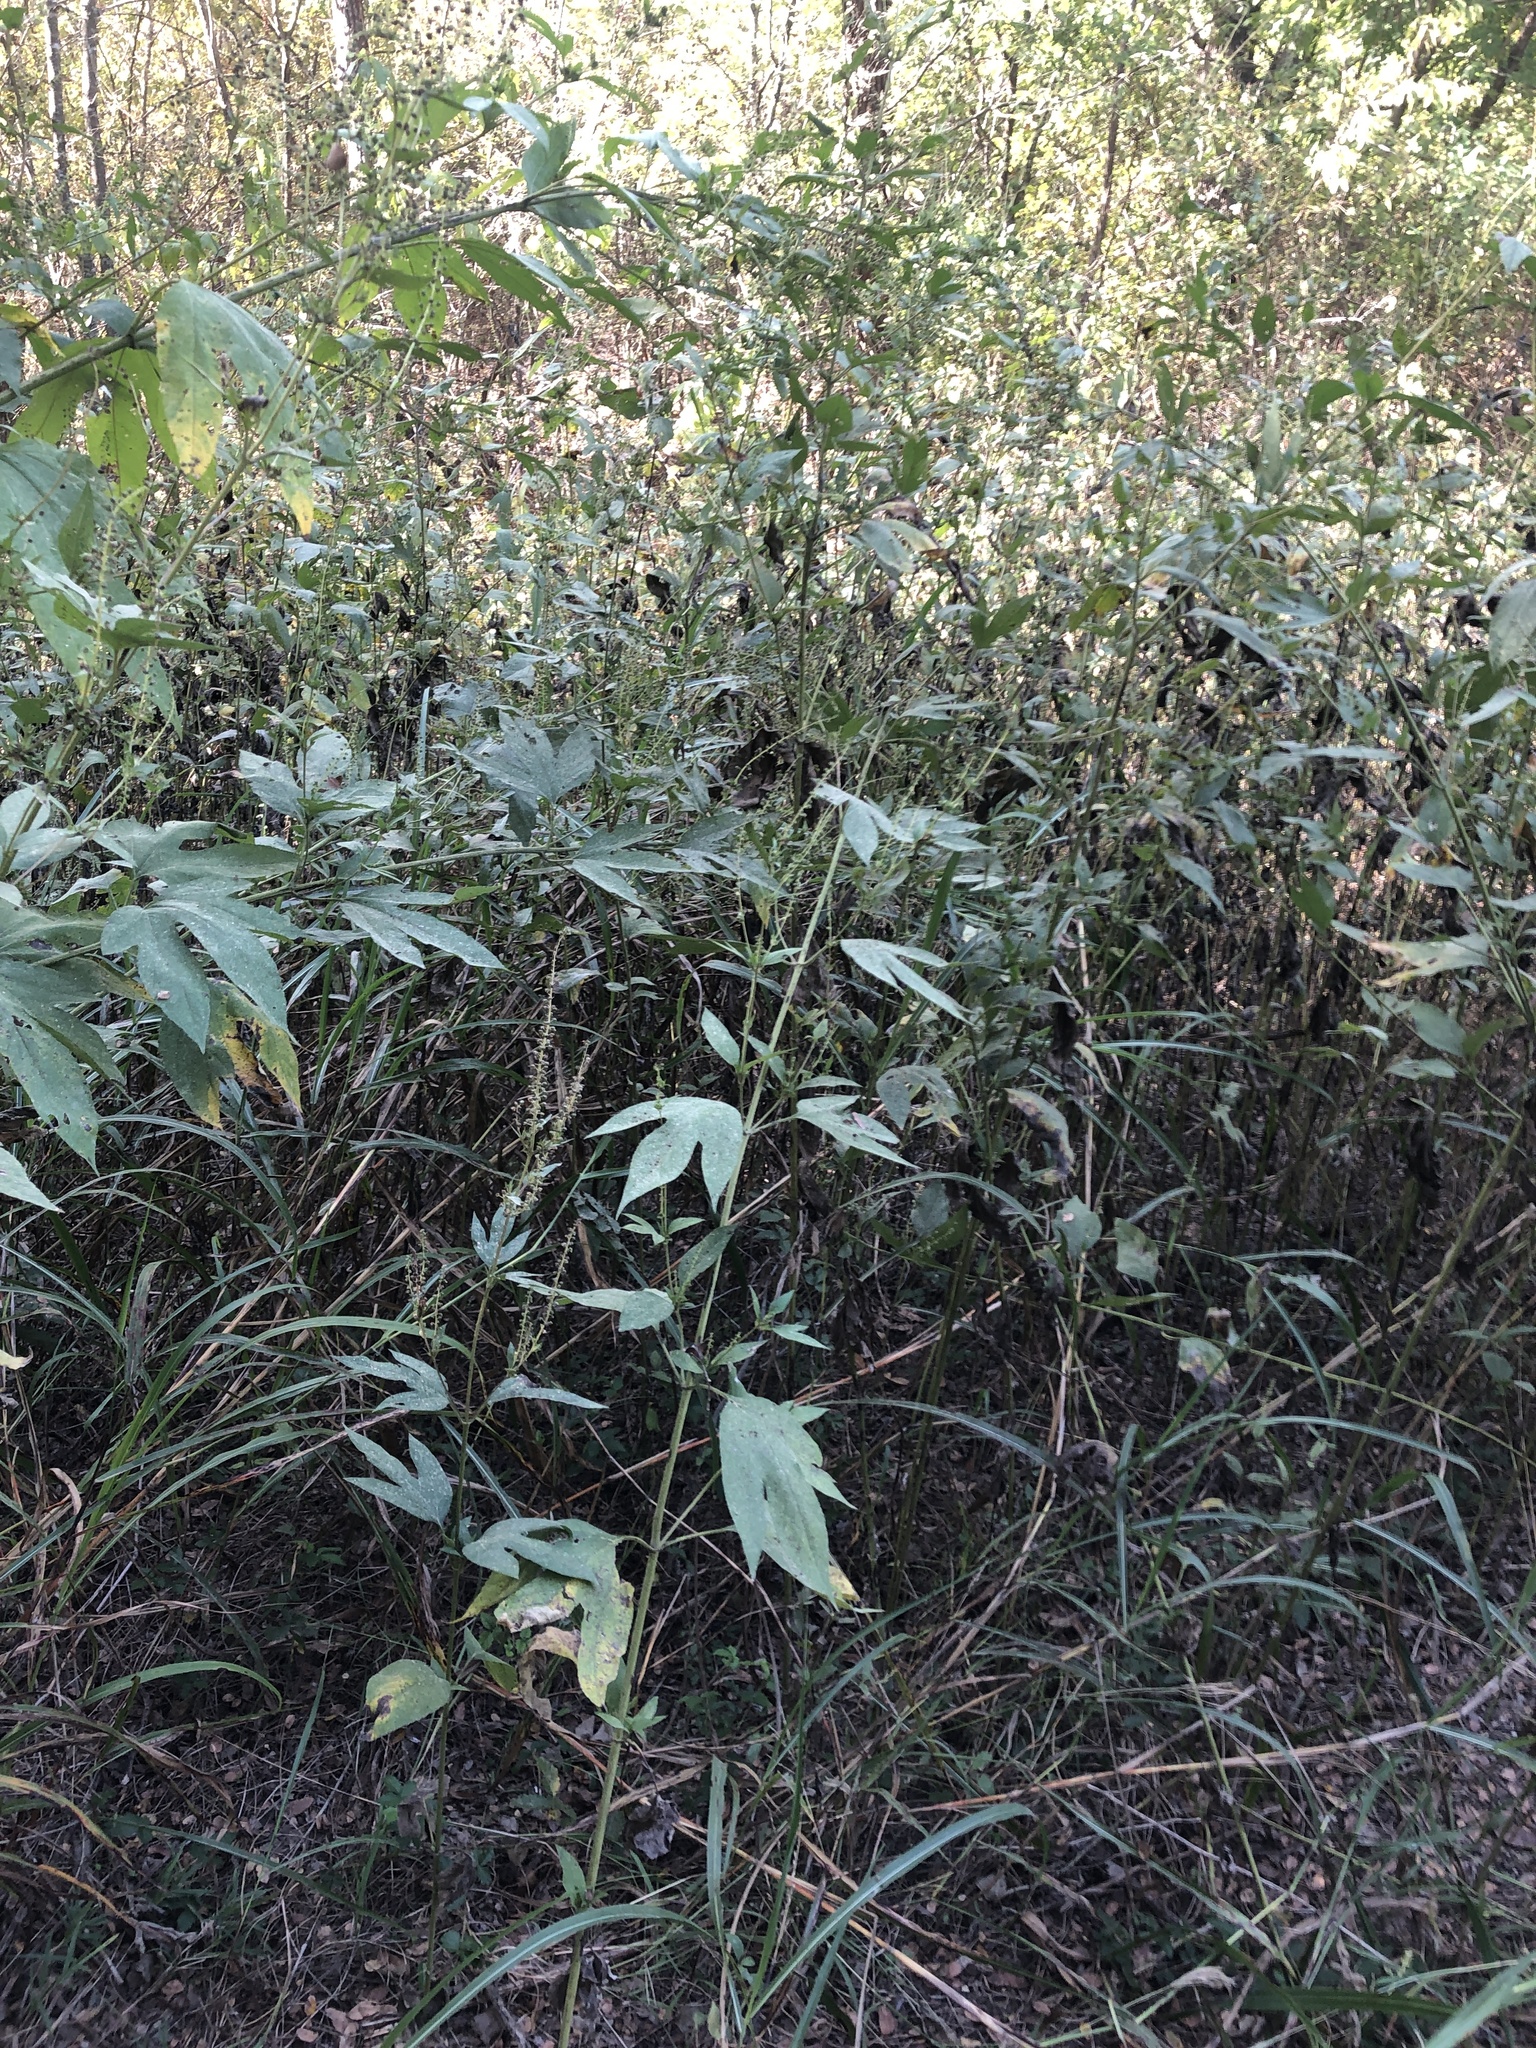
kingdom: Plantae
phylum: Tracheophyta
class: Magnoliopsida
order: Asterales
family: Asteraceae
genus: Ambrosia
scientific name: Ambrosia trifida
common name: Giant ragweed
